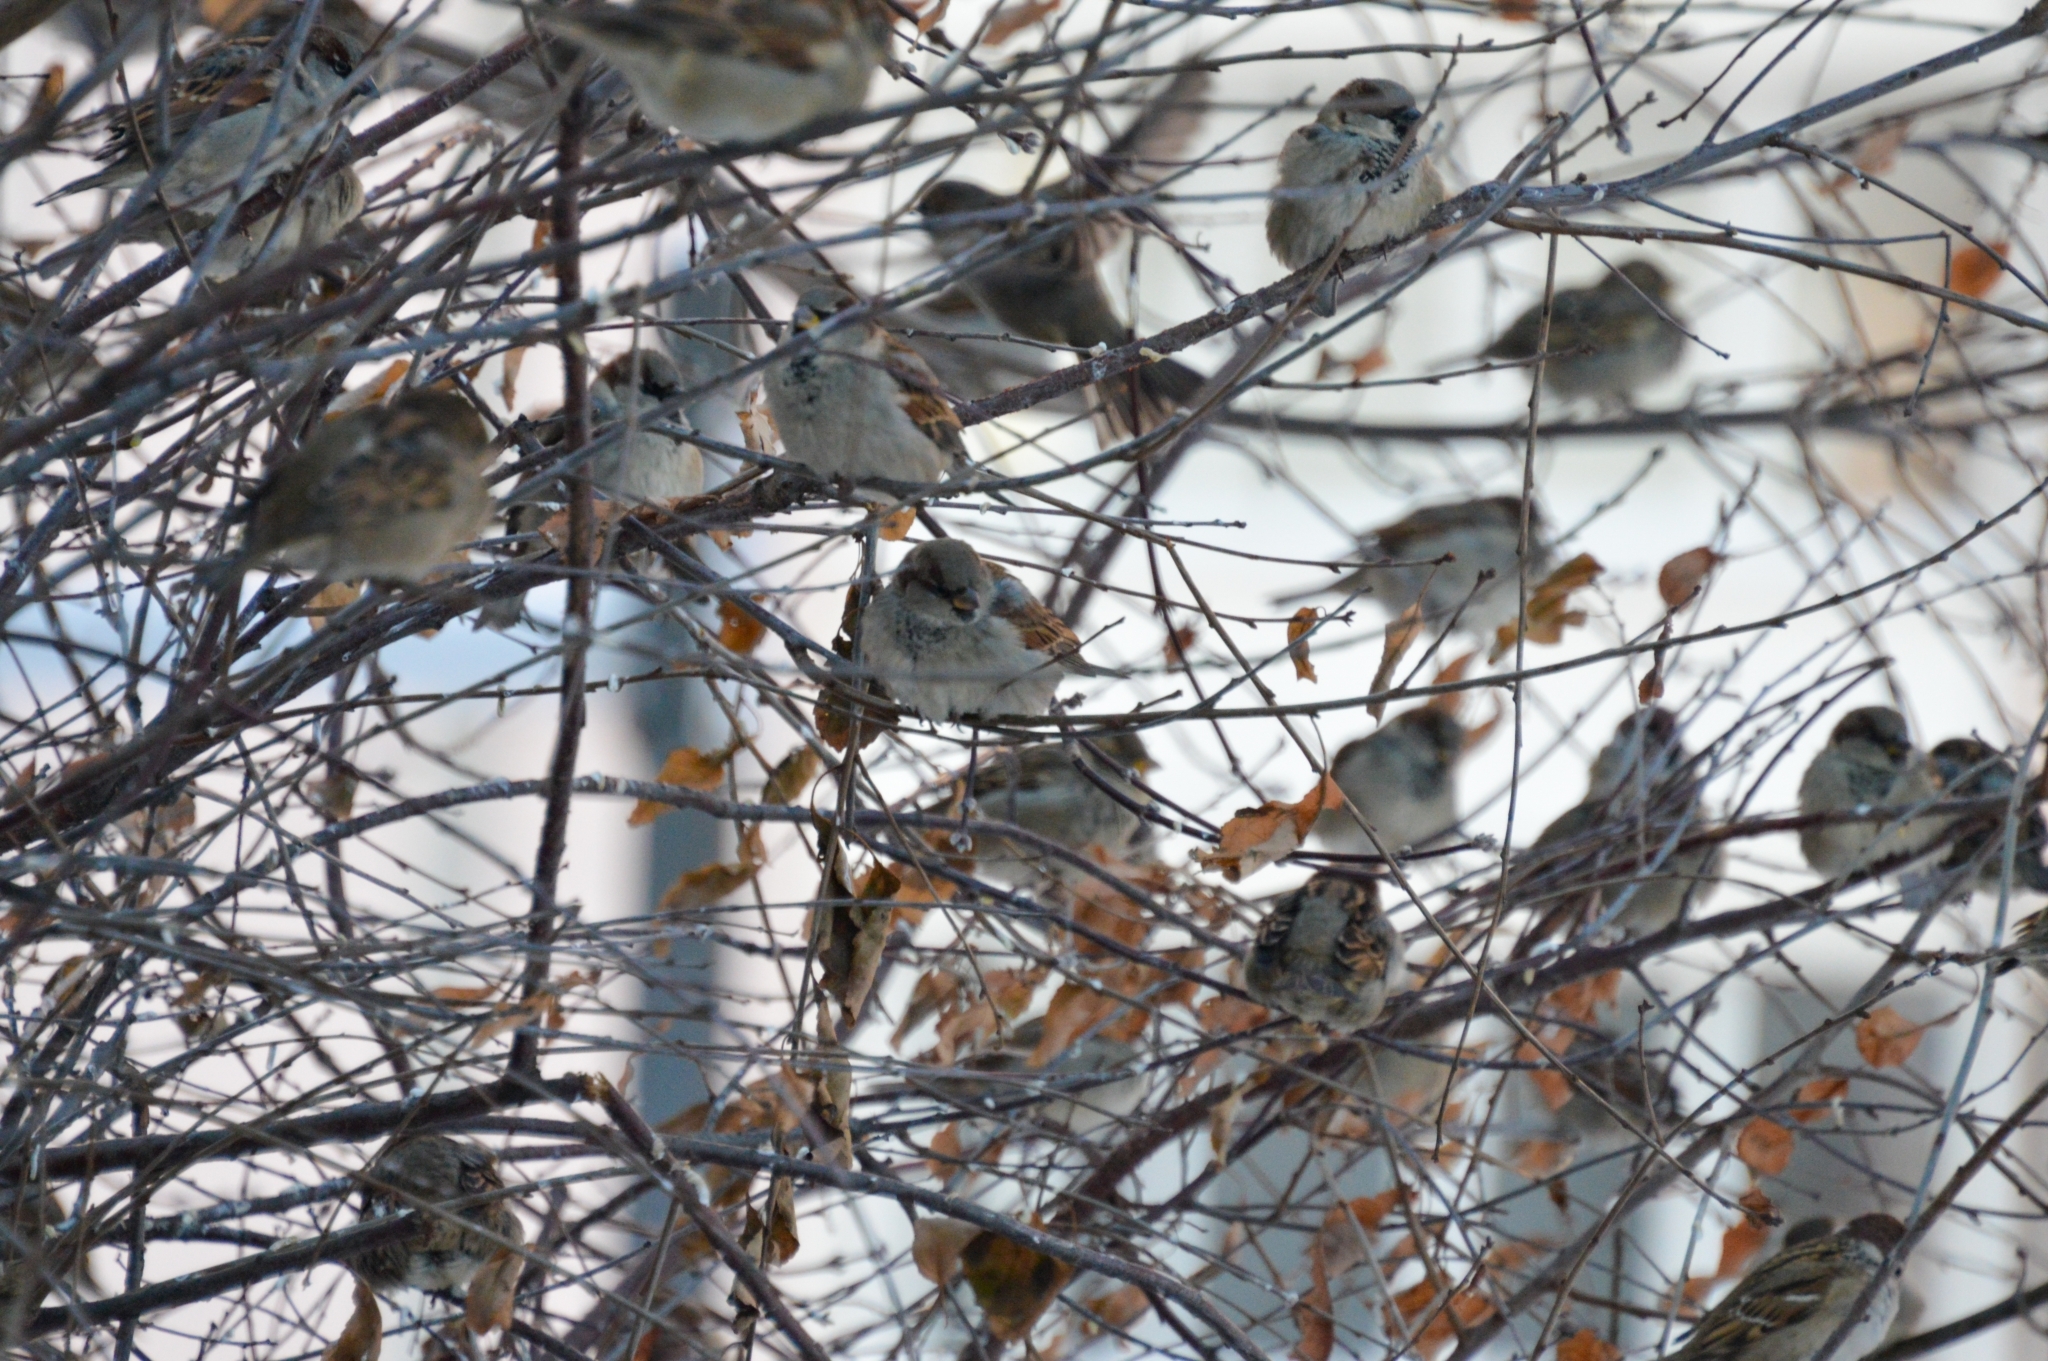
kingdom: Animalia
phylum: Chordata
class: Aves
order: Passeriformes
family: Passeridae
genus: Passer
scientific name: Passer domesticus
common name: House sparrow
